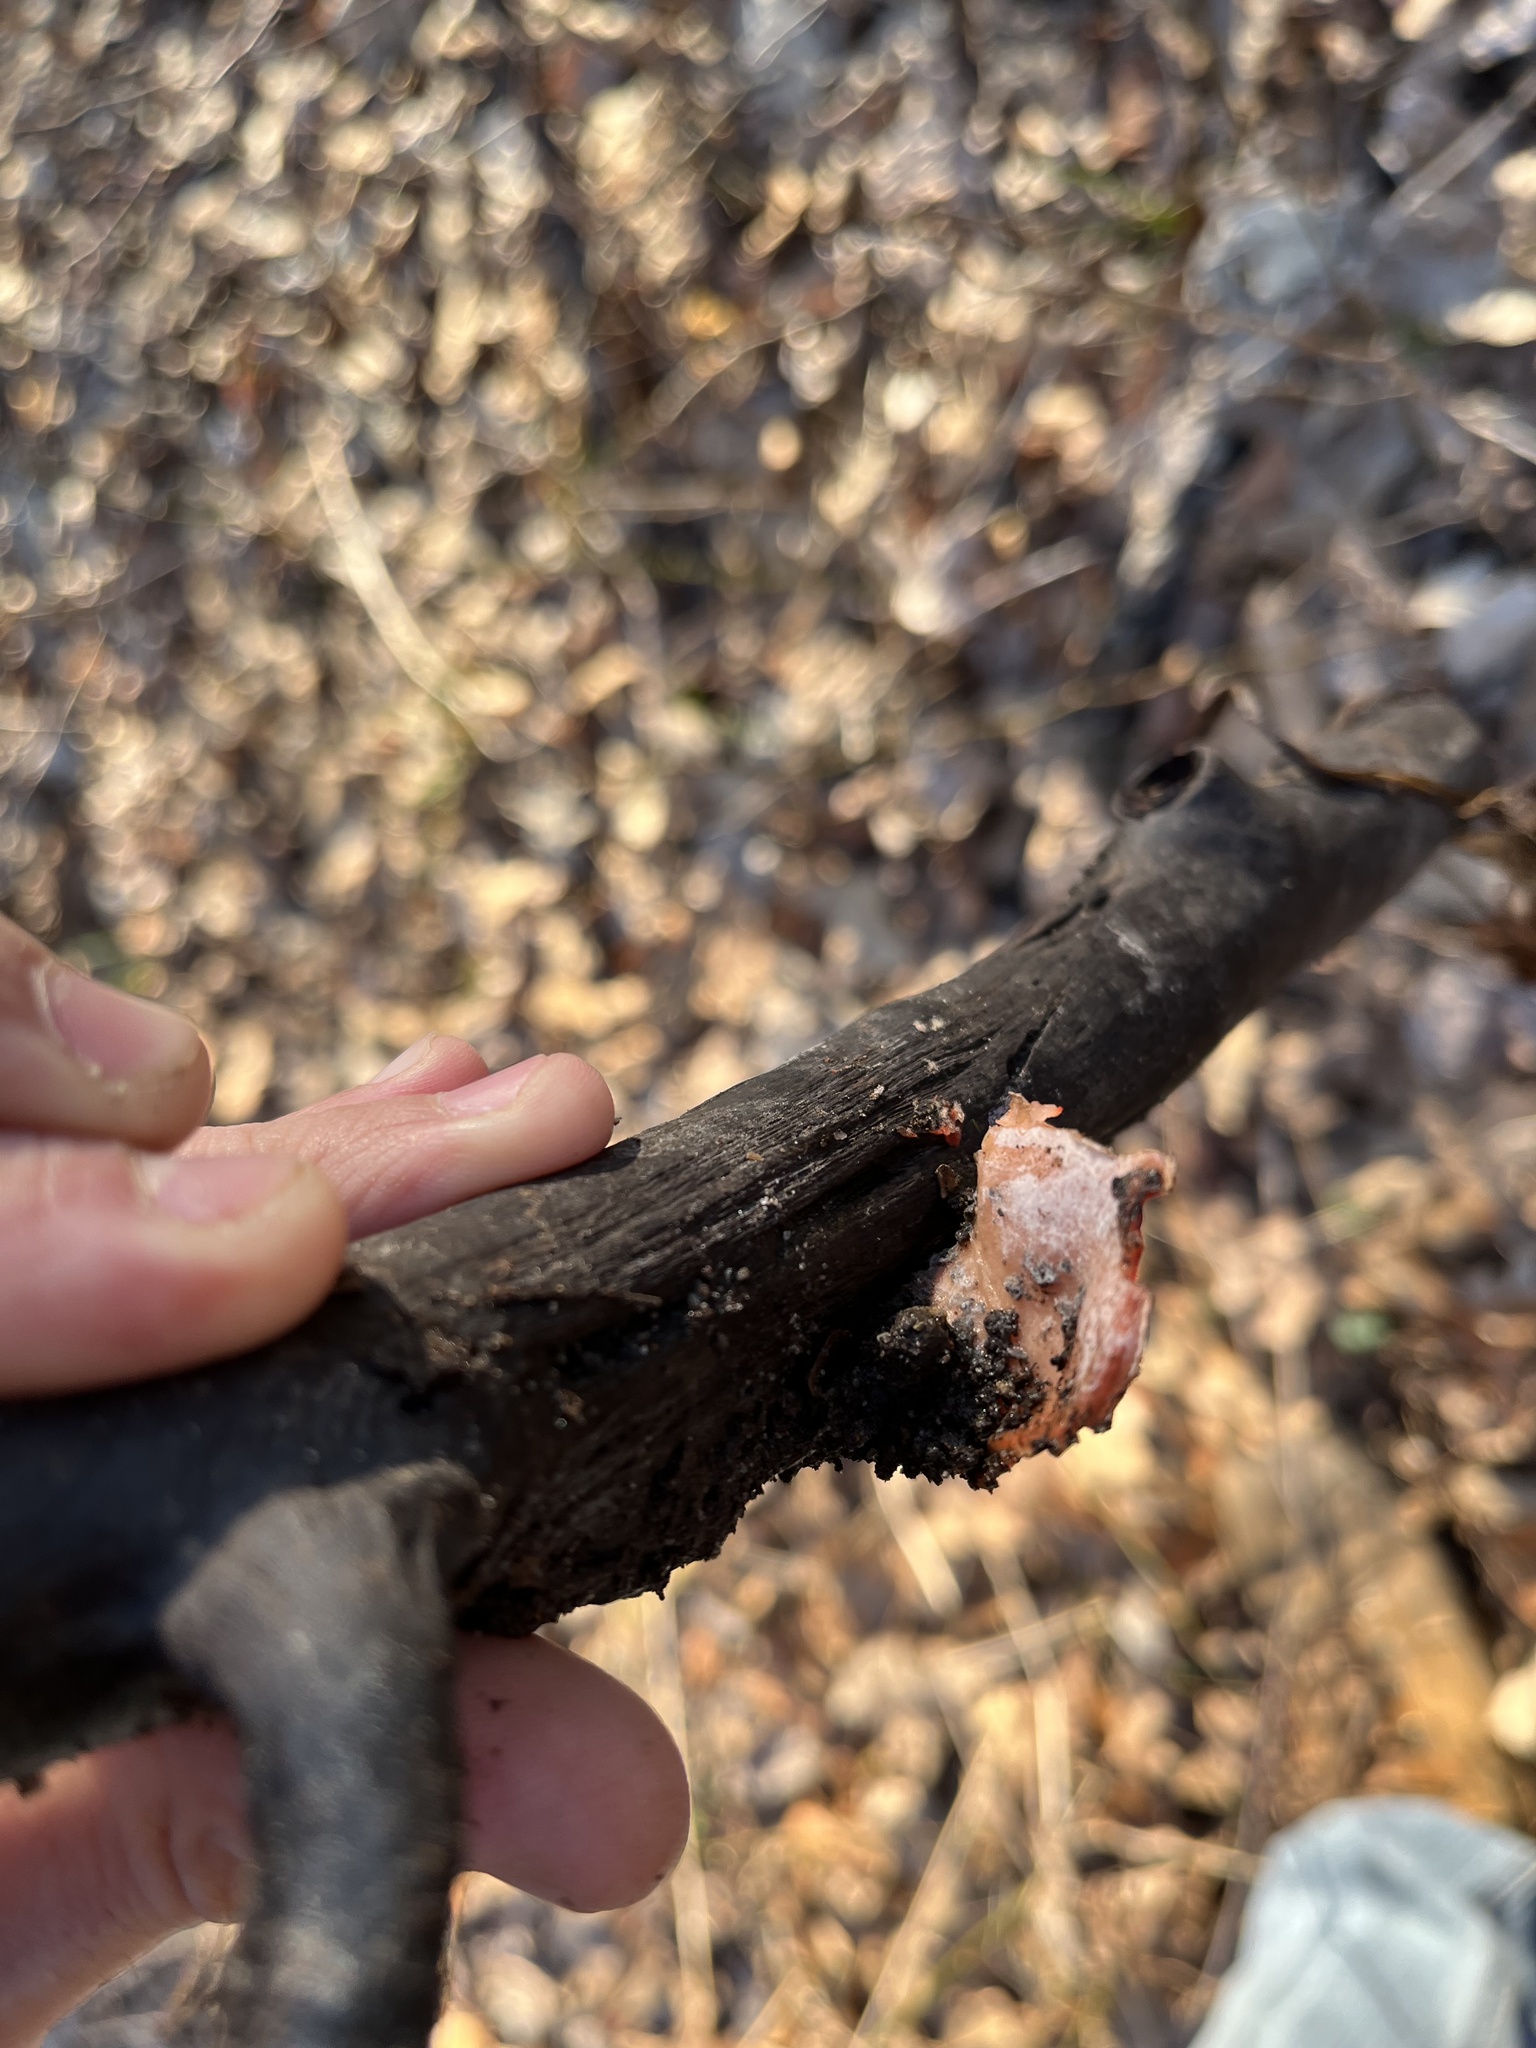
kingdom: Fungi
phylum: Ascomycota
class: Pezizomycetes
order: Pezizales
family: Sarcoscyphaceae
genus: Sarcoscypha
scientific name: Sarcoscypha austriaca
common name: Scarlet elfcup
